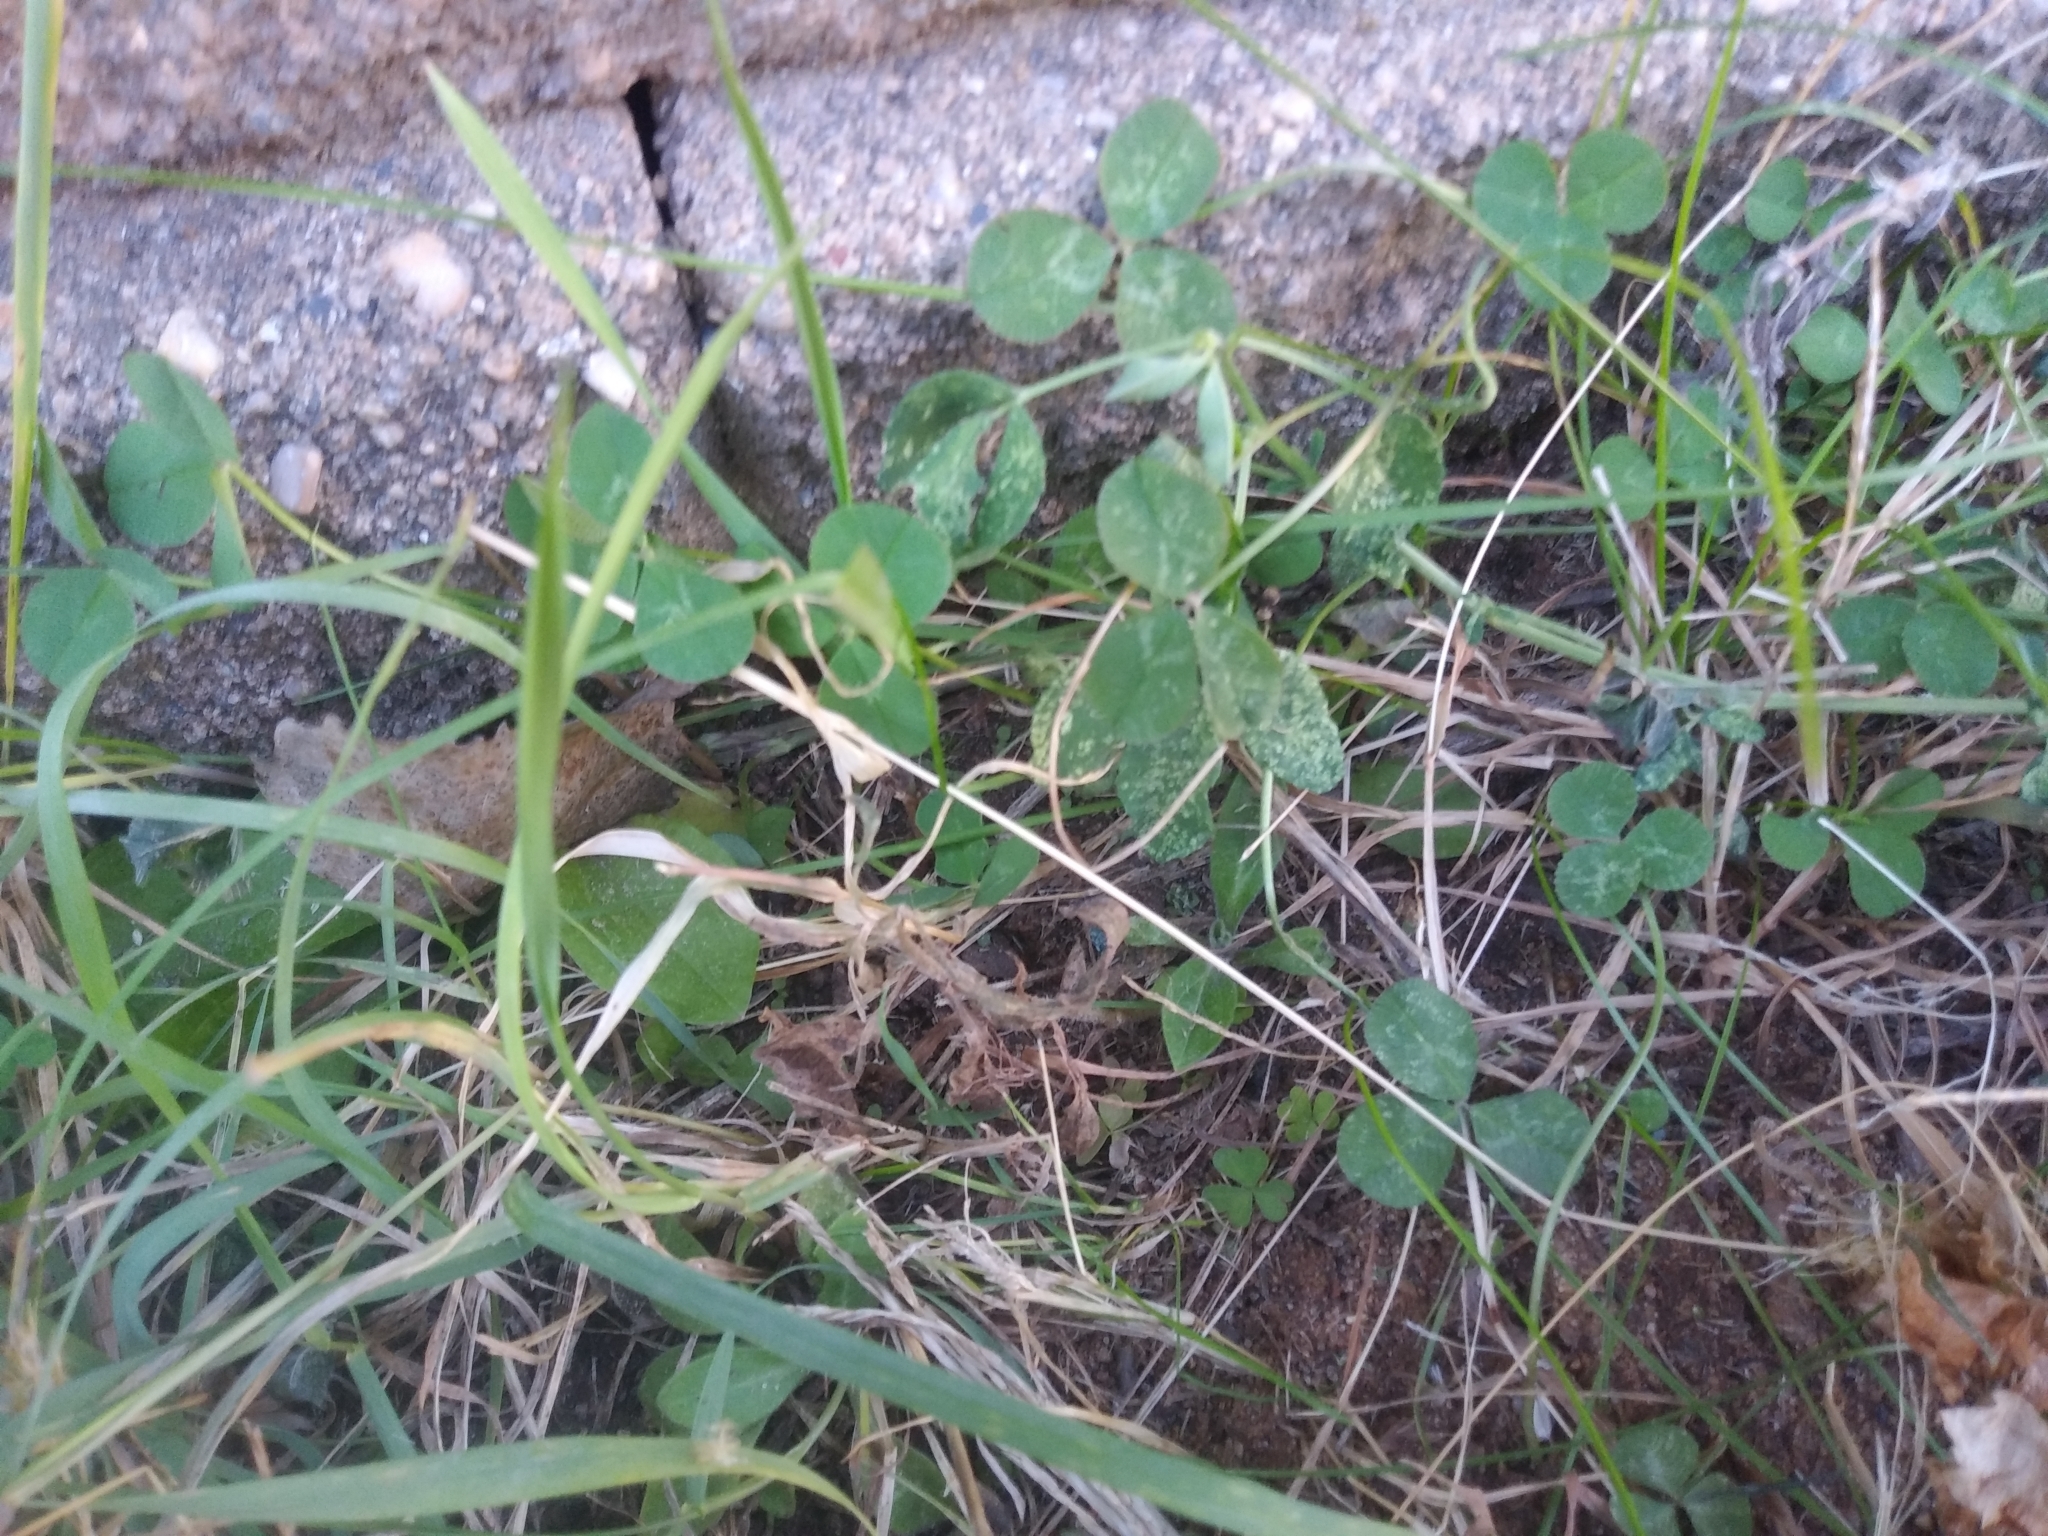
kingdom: Plantae
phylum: Tracheophyta
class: Magnoliopsida
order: Fabales
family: Fabaceae
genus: Trifolium
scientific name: Trifolium repens
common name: White clover
